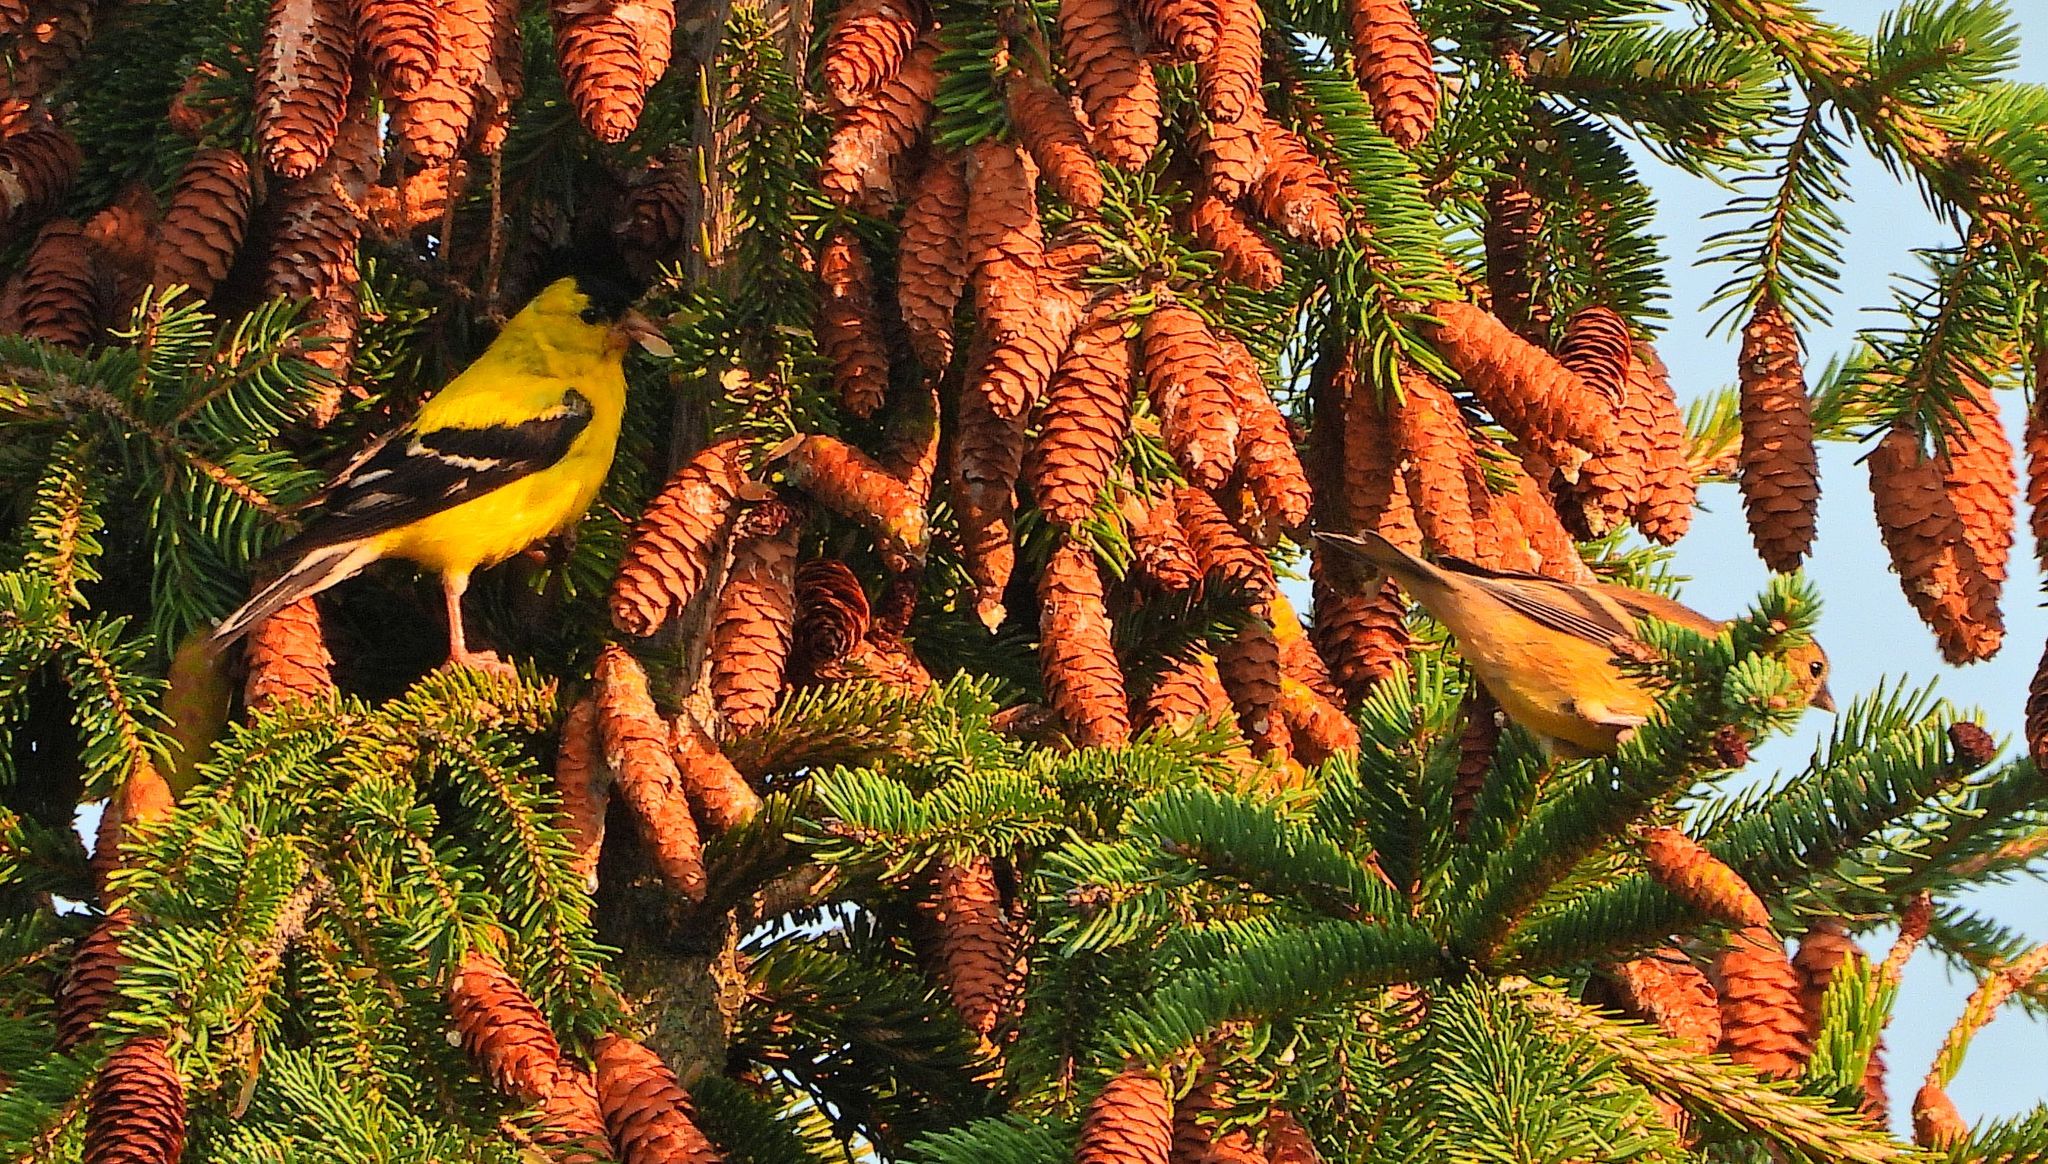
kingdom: Animalia
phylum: Chordata
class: Aves
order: Passeriformes
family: Fringillidae
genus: Spinus
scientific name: Spinus tristis
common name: American goldfinch
